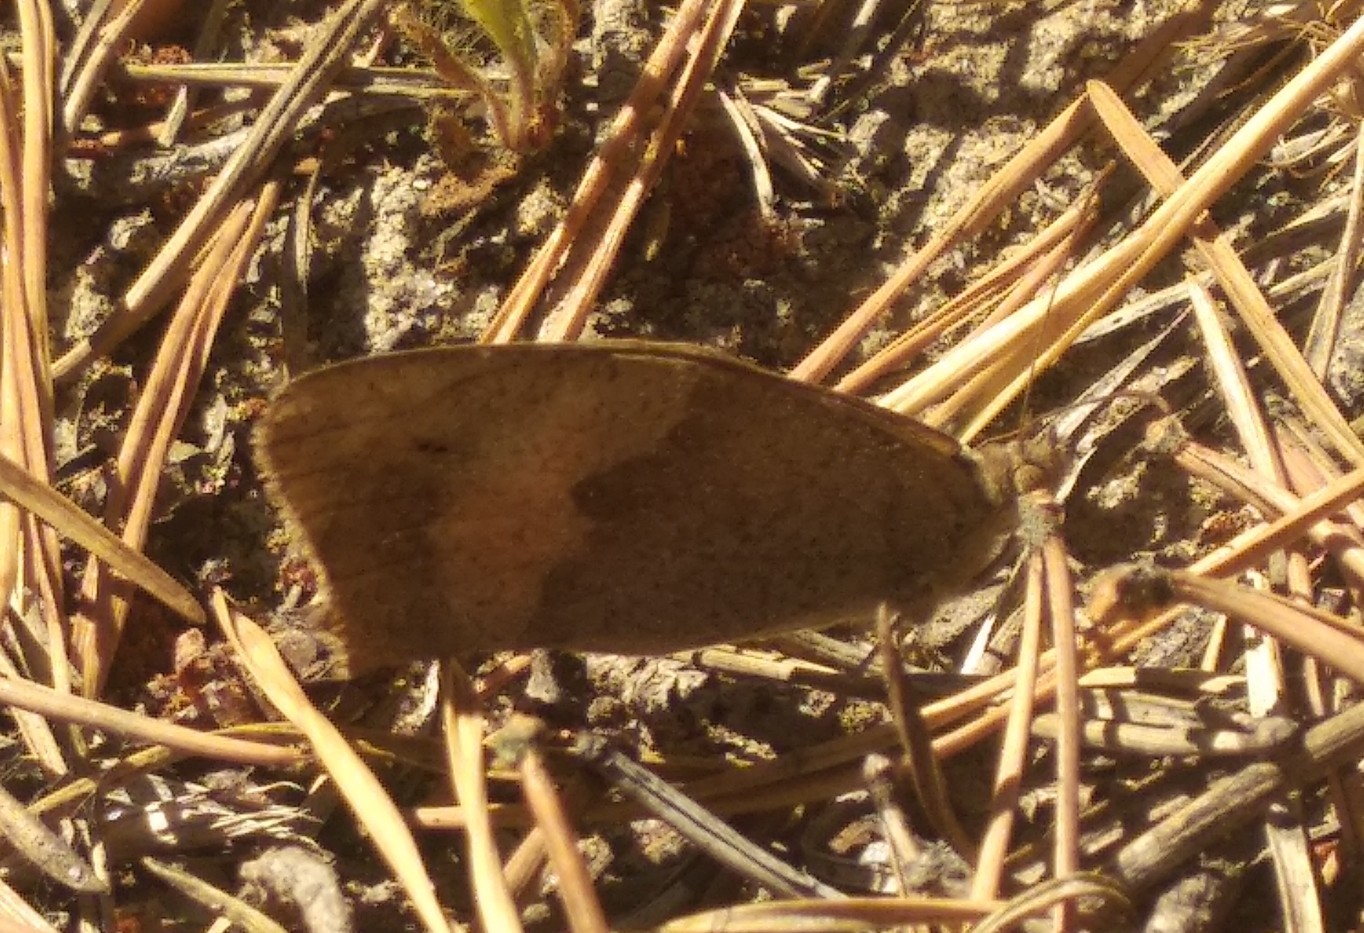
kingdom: Animalia
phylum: Arthropoda
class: Insecta
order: Lepidoptera
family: Nymphalidae
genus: Maniola
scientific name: Maniola jurtina
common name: Meadow brown
